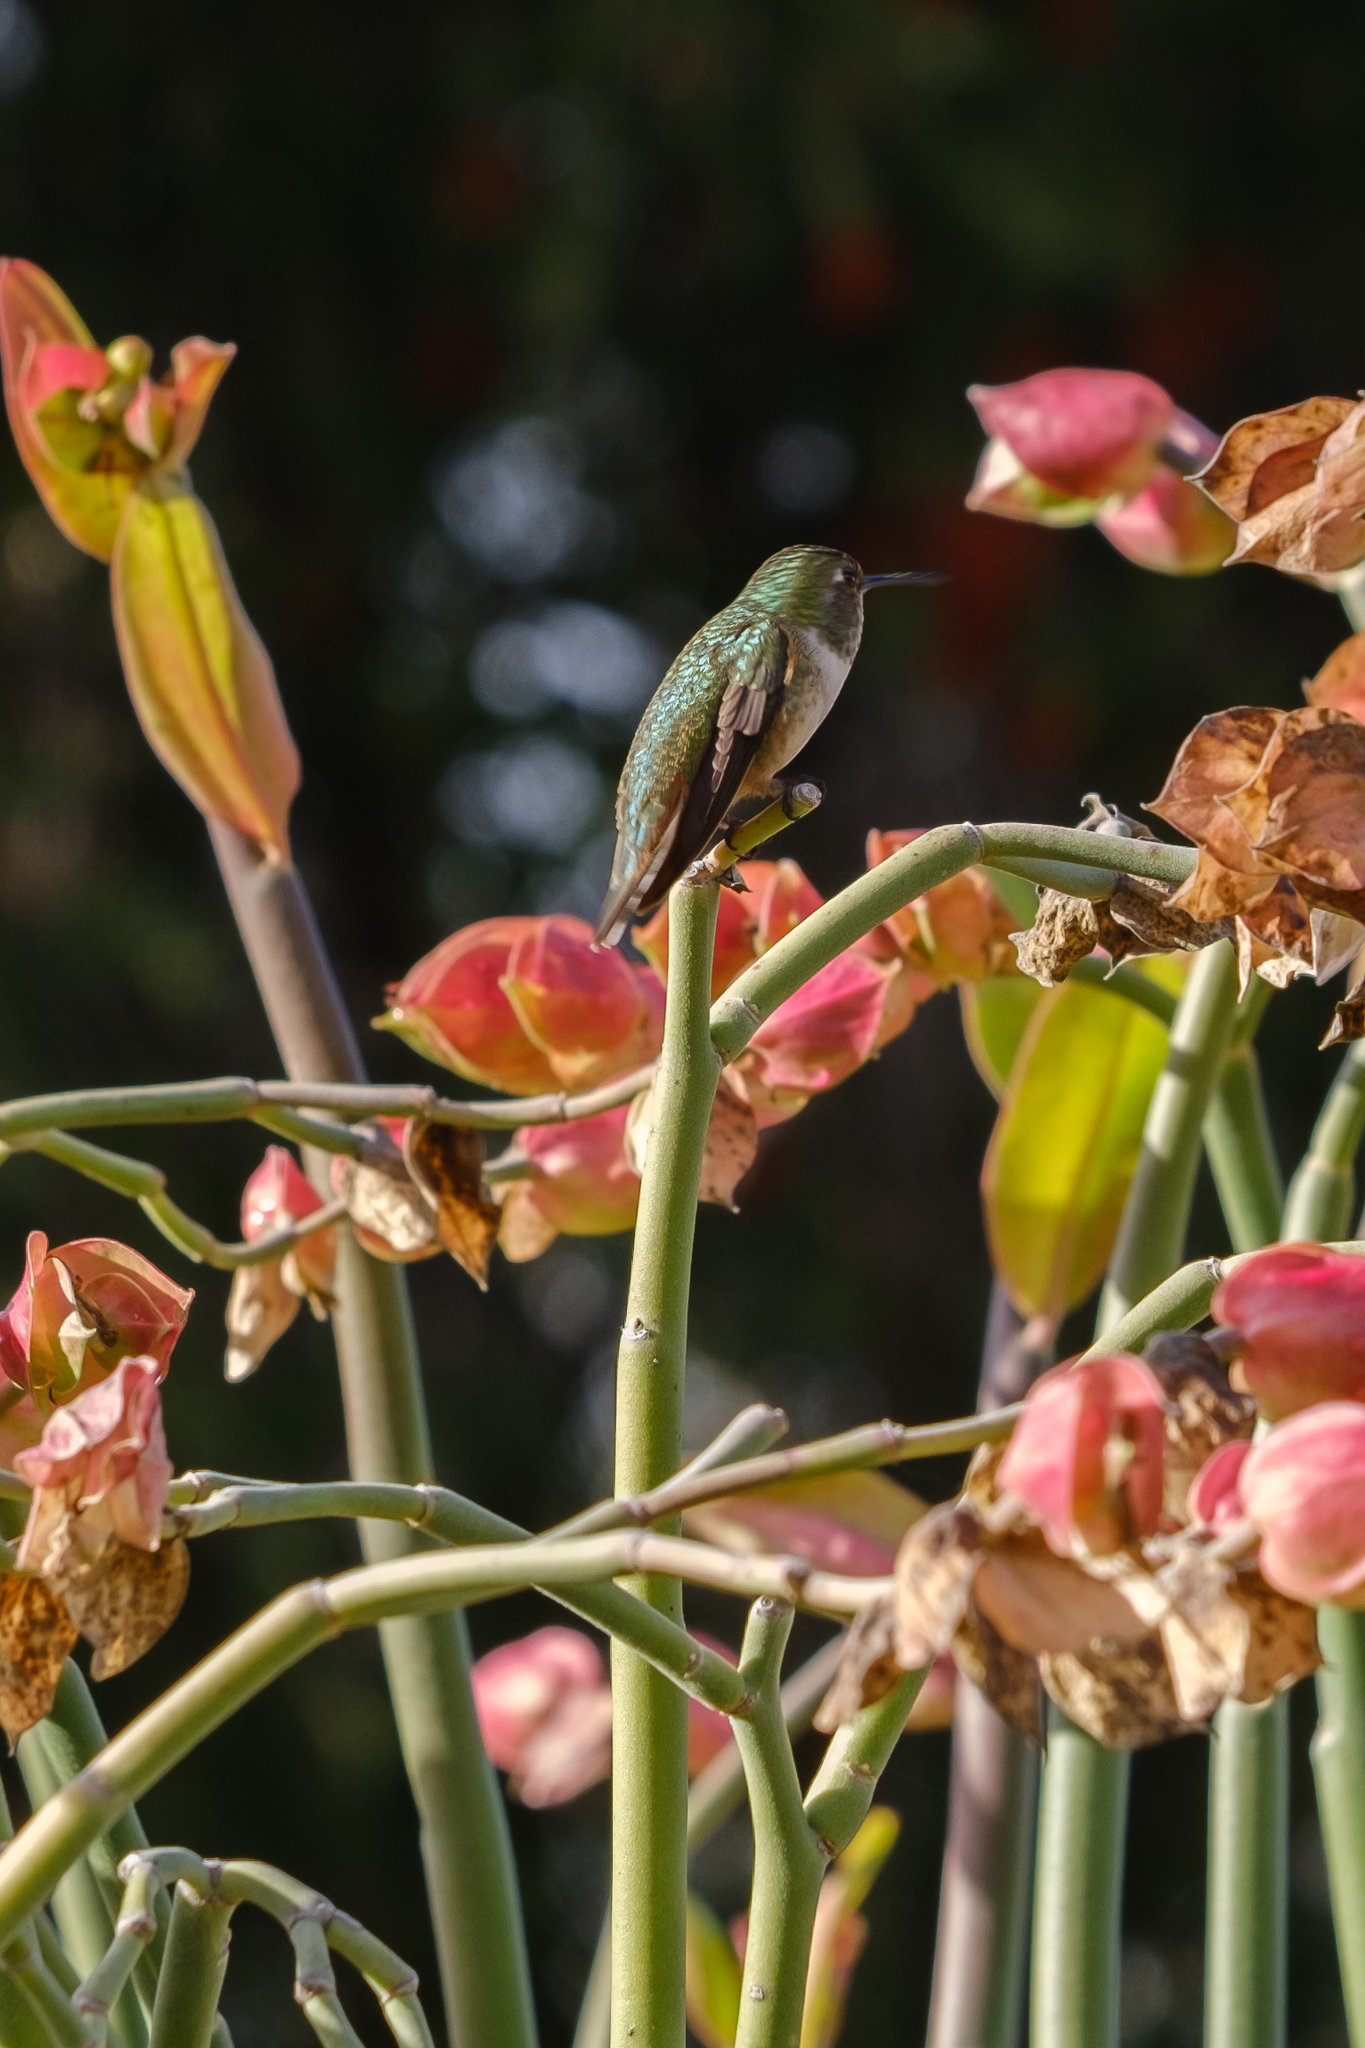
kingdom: Animalia
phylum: Chordata
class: Aves
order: Apodiformes
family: Trochilidae
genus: Selasphorus
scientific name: Selasphorus sasin
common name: Allen's hummingbird
